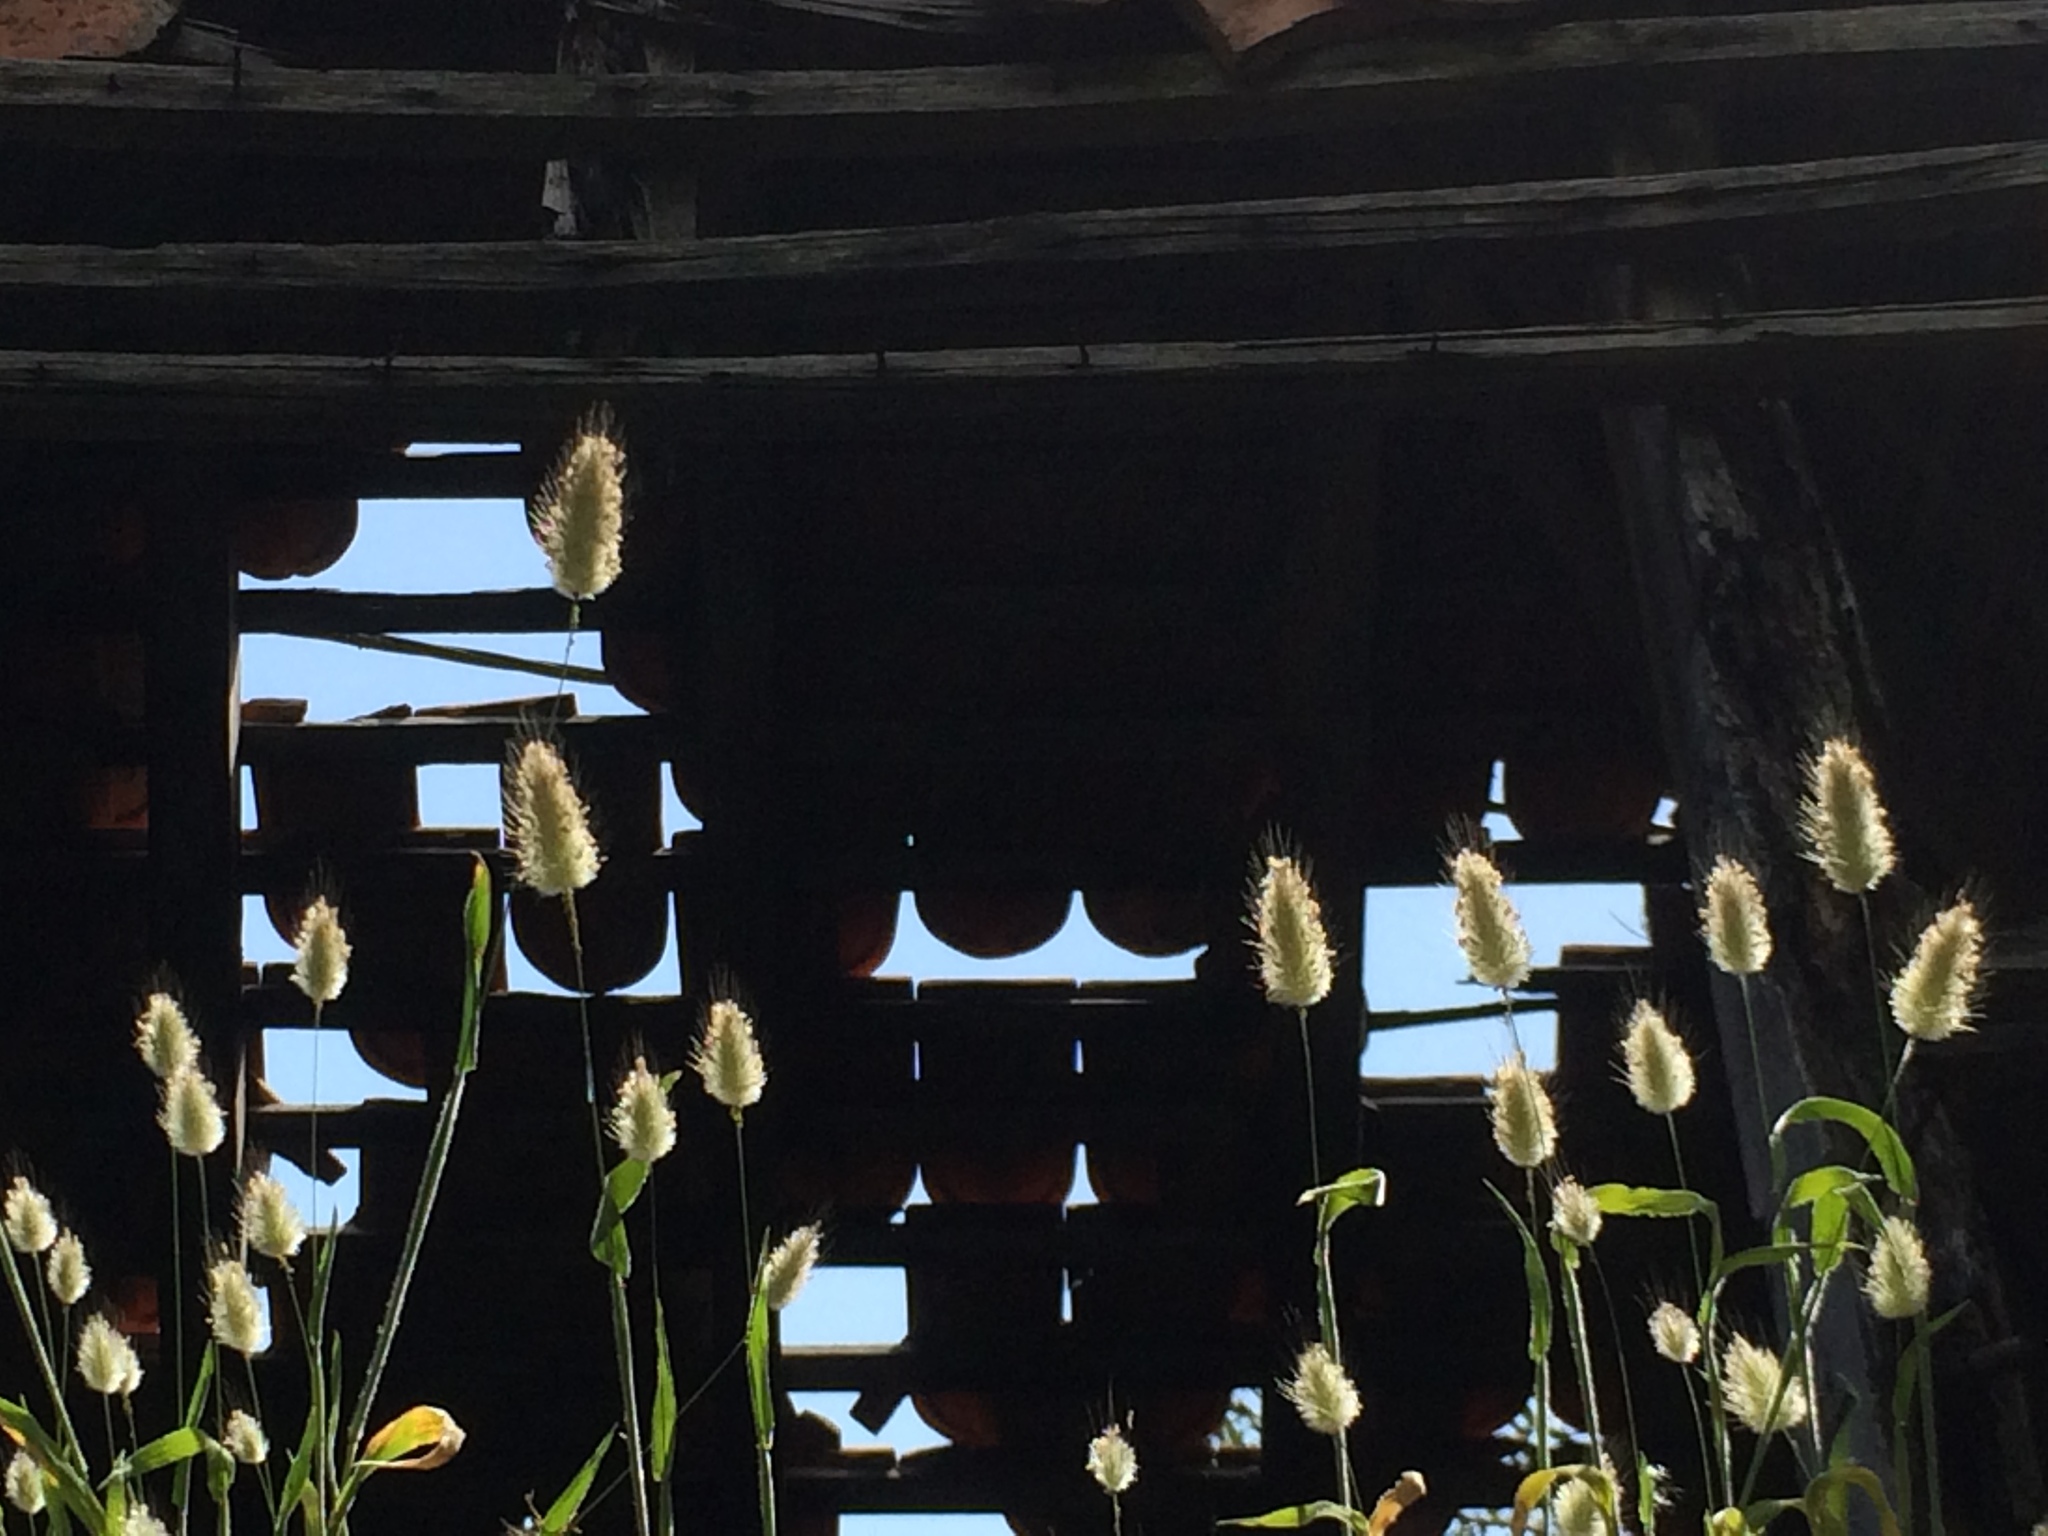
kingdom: Plantae
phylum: Tracheophyta
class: Liliopsida
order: Poales
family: Poaceae
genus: Lagurus
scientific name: Lagurus ovatus
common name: Hare's-tail
